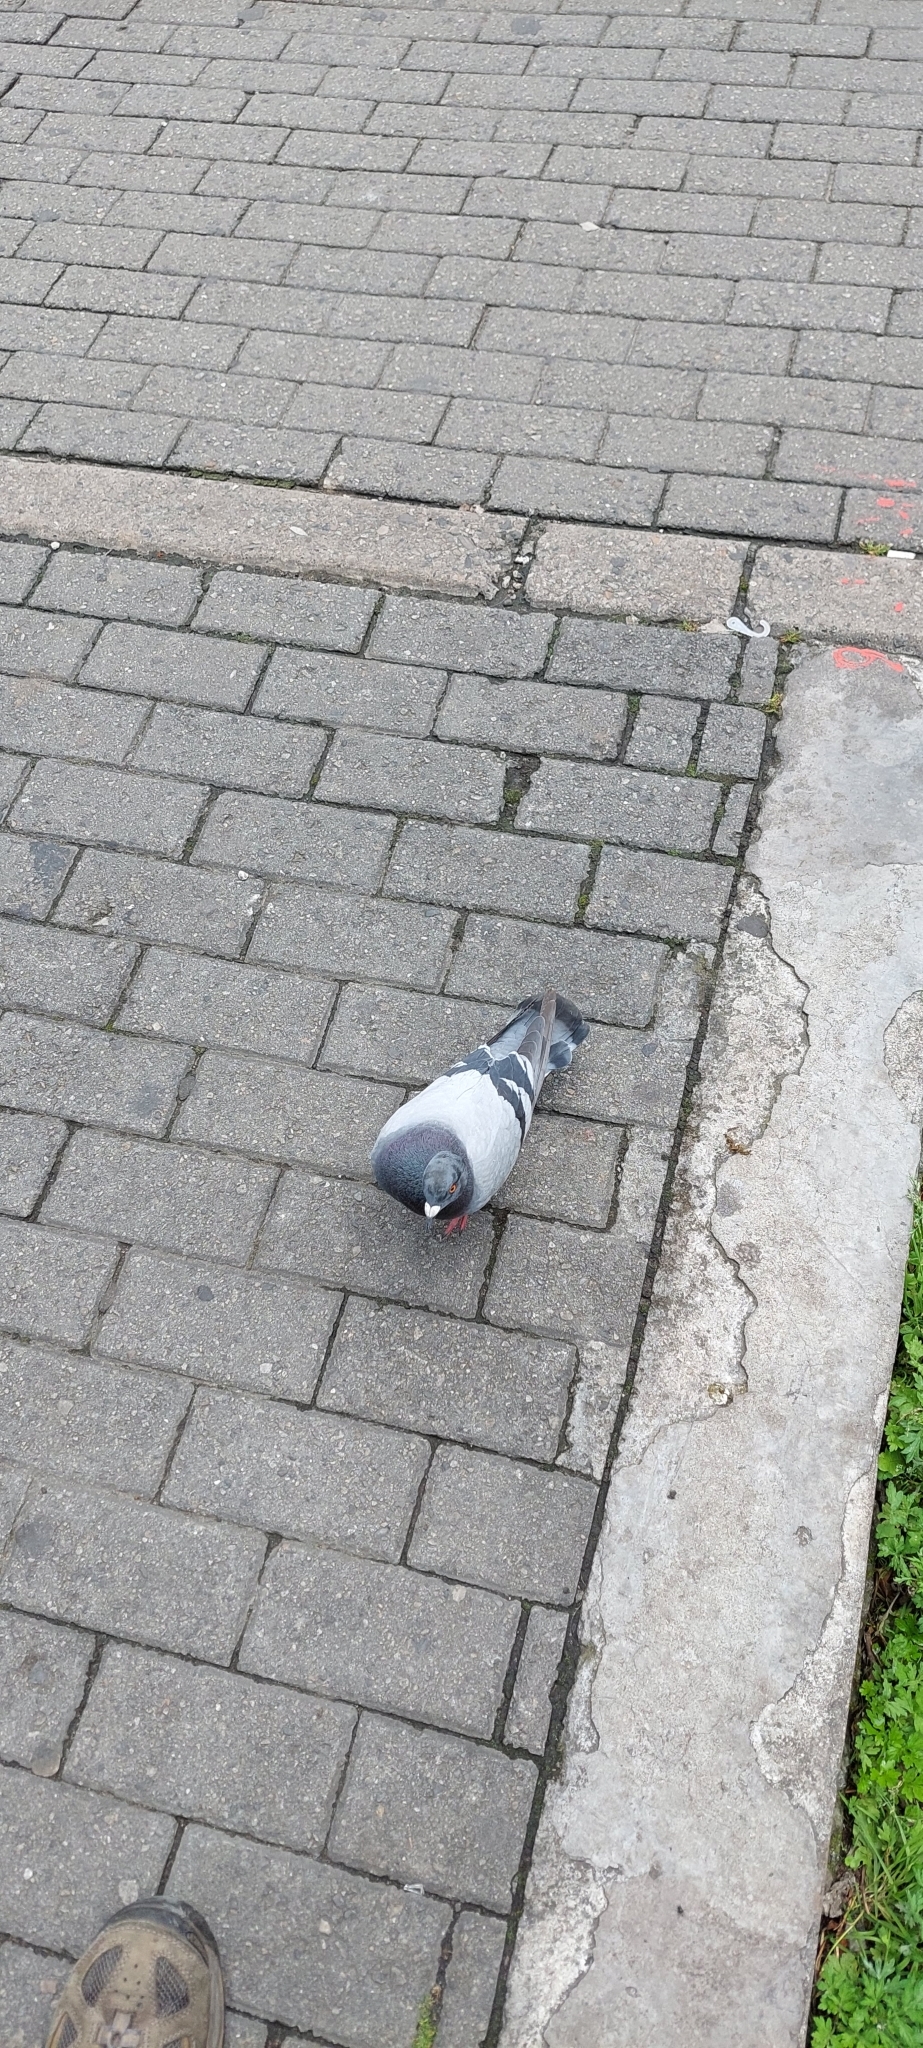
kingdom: Animalia
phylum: Chordata
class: Aves
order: Columbiformes
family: Columbidae
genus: Columba
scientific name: Columba livia
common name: Rock pigeon
